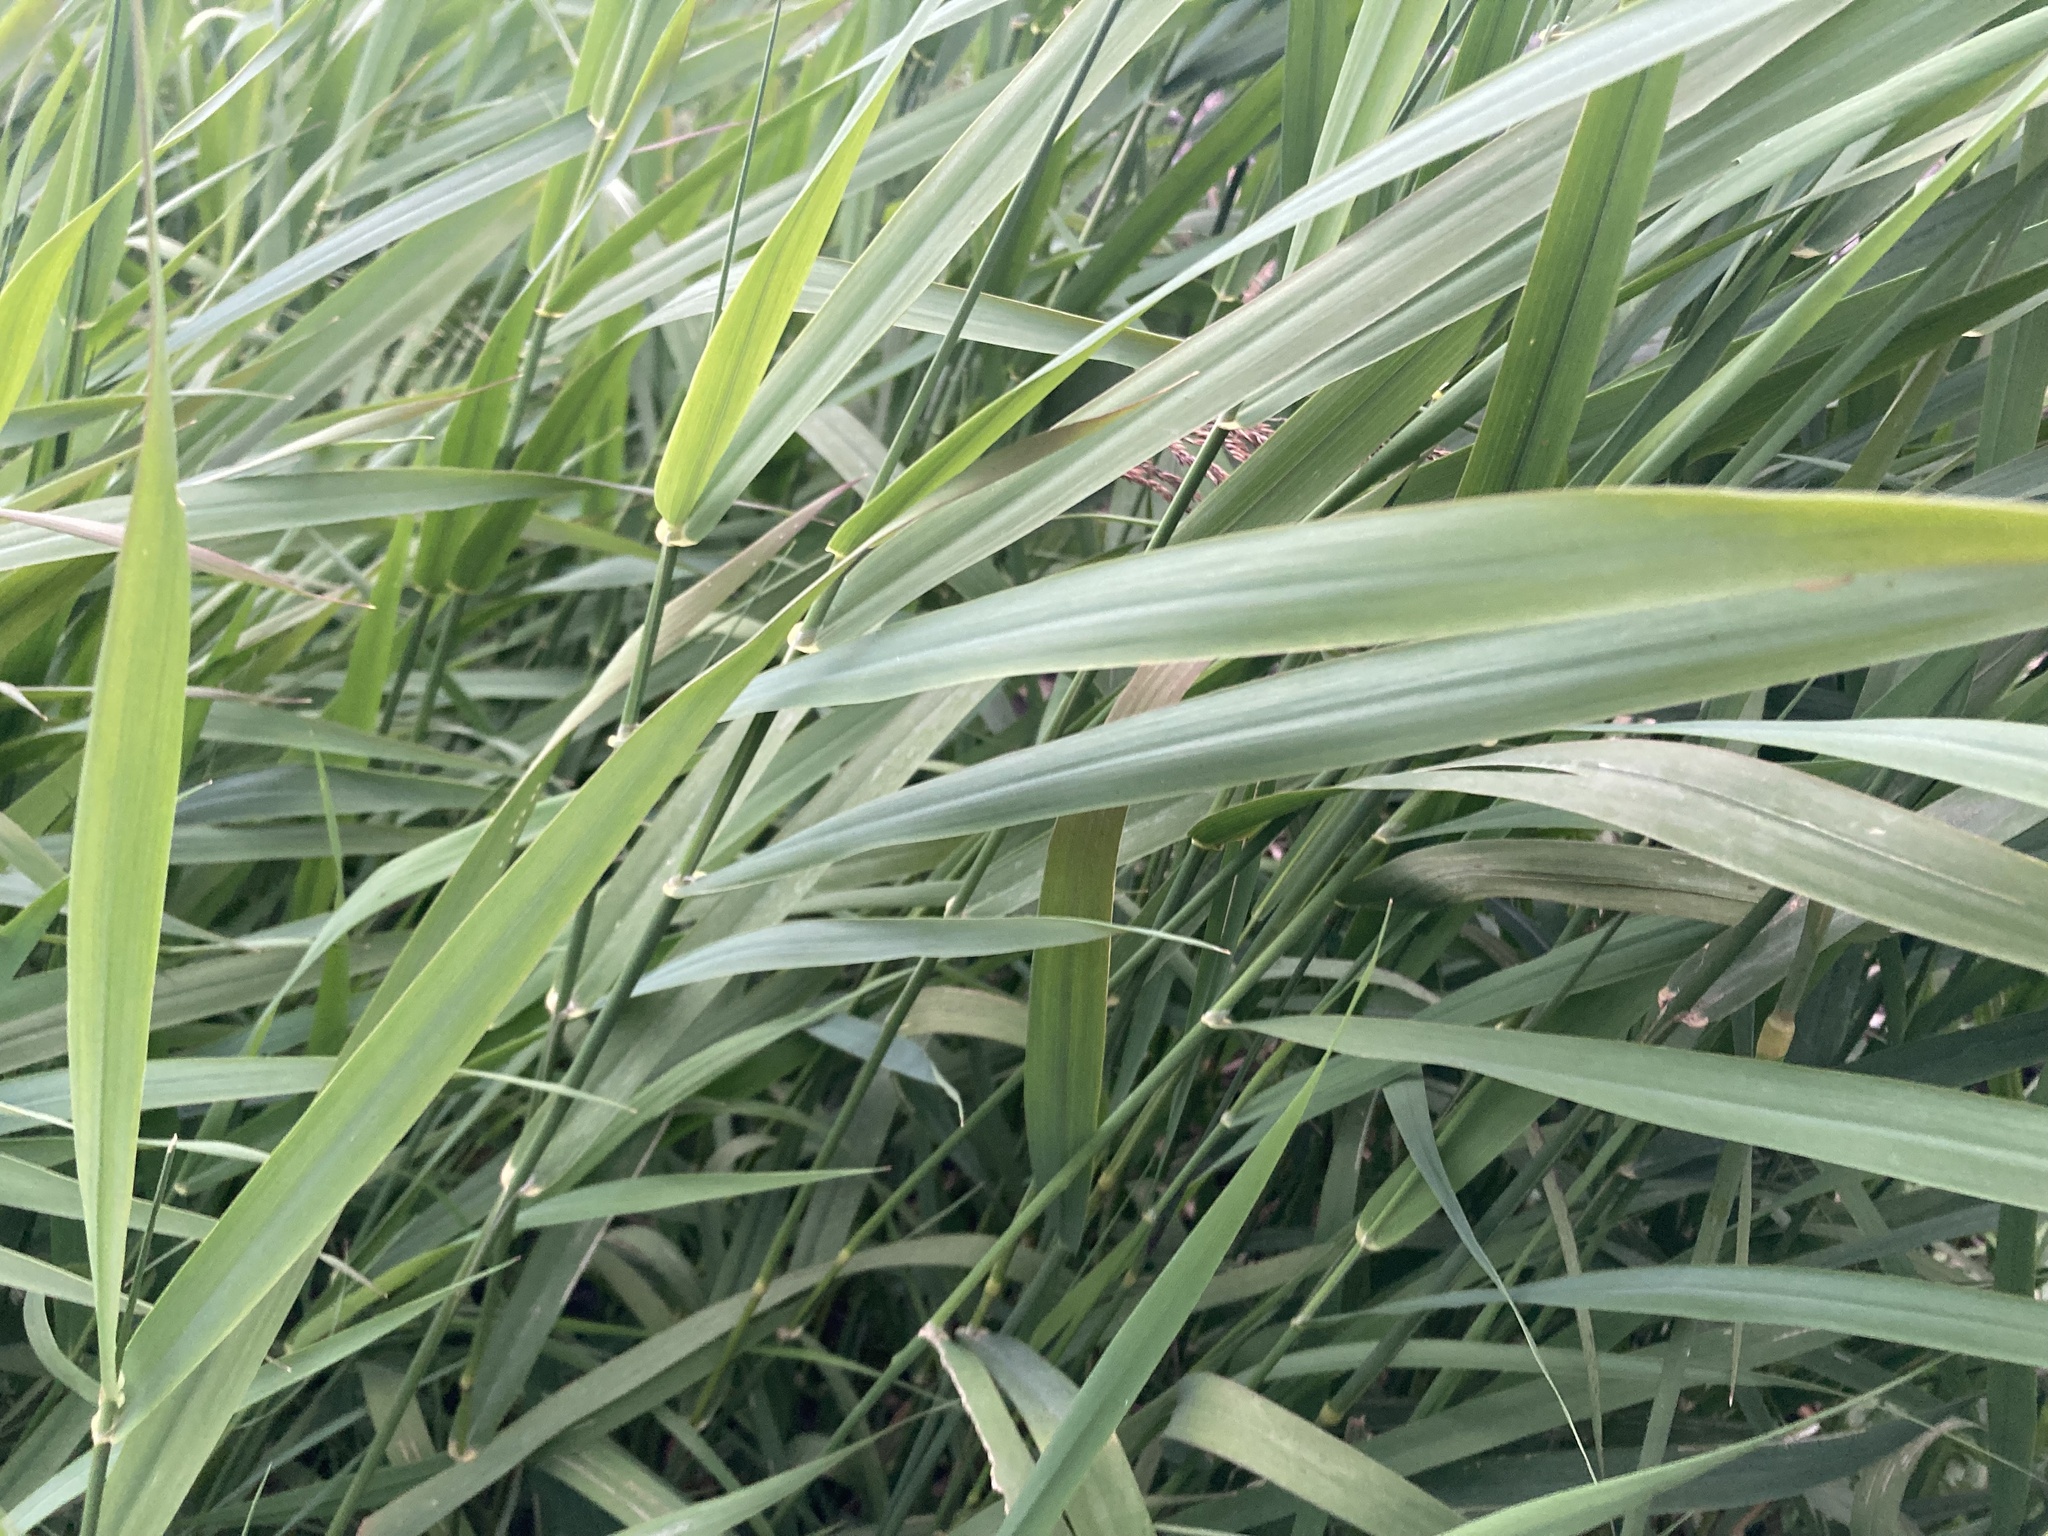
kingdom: Plantae
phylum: Tracheophyta
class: Liliopsida
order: Poales
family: Poaceae
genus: Phalaris
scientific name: Phalaris arundinacea
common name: Reed canary-grass
